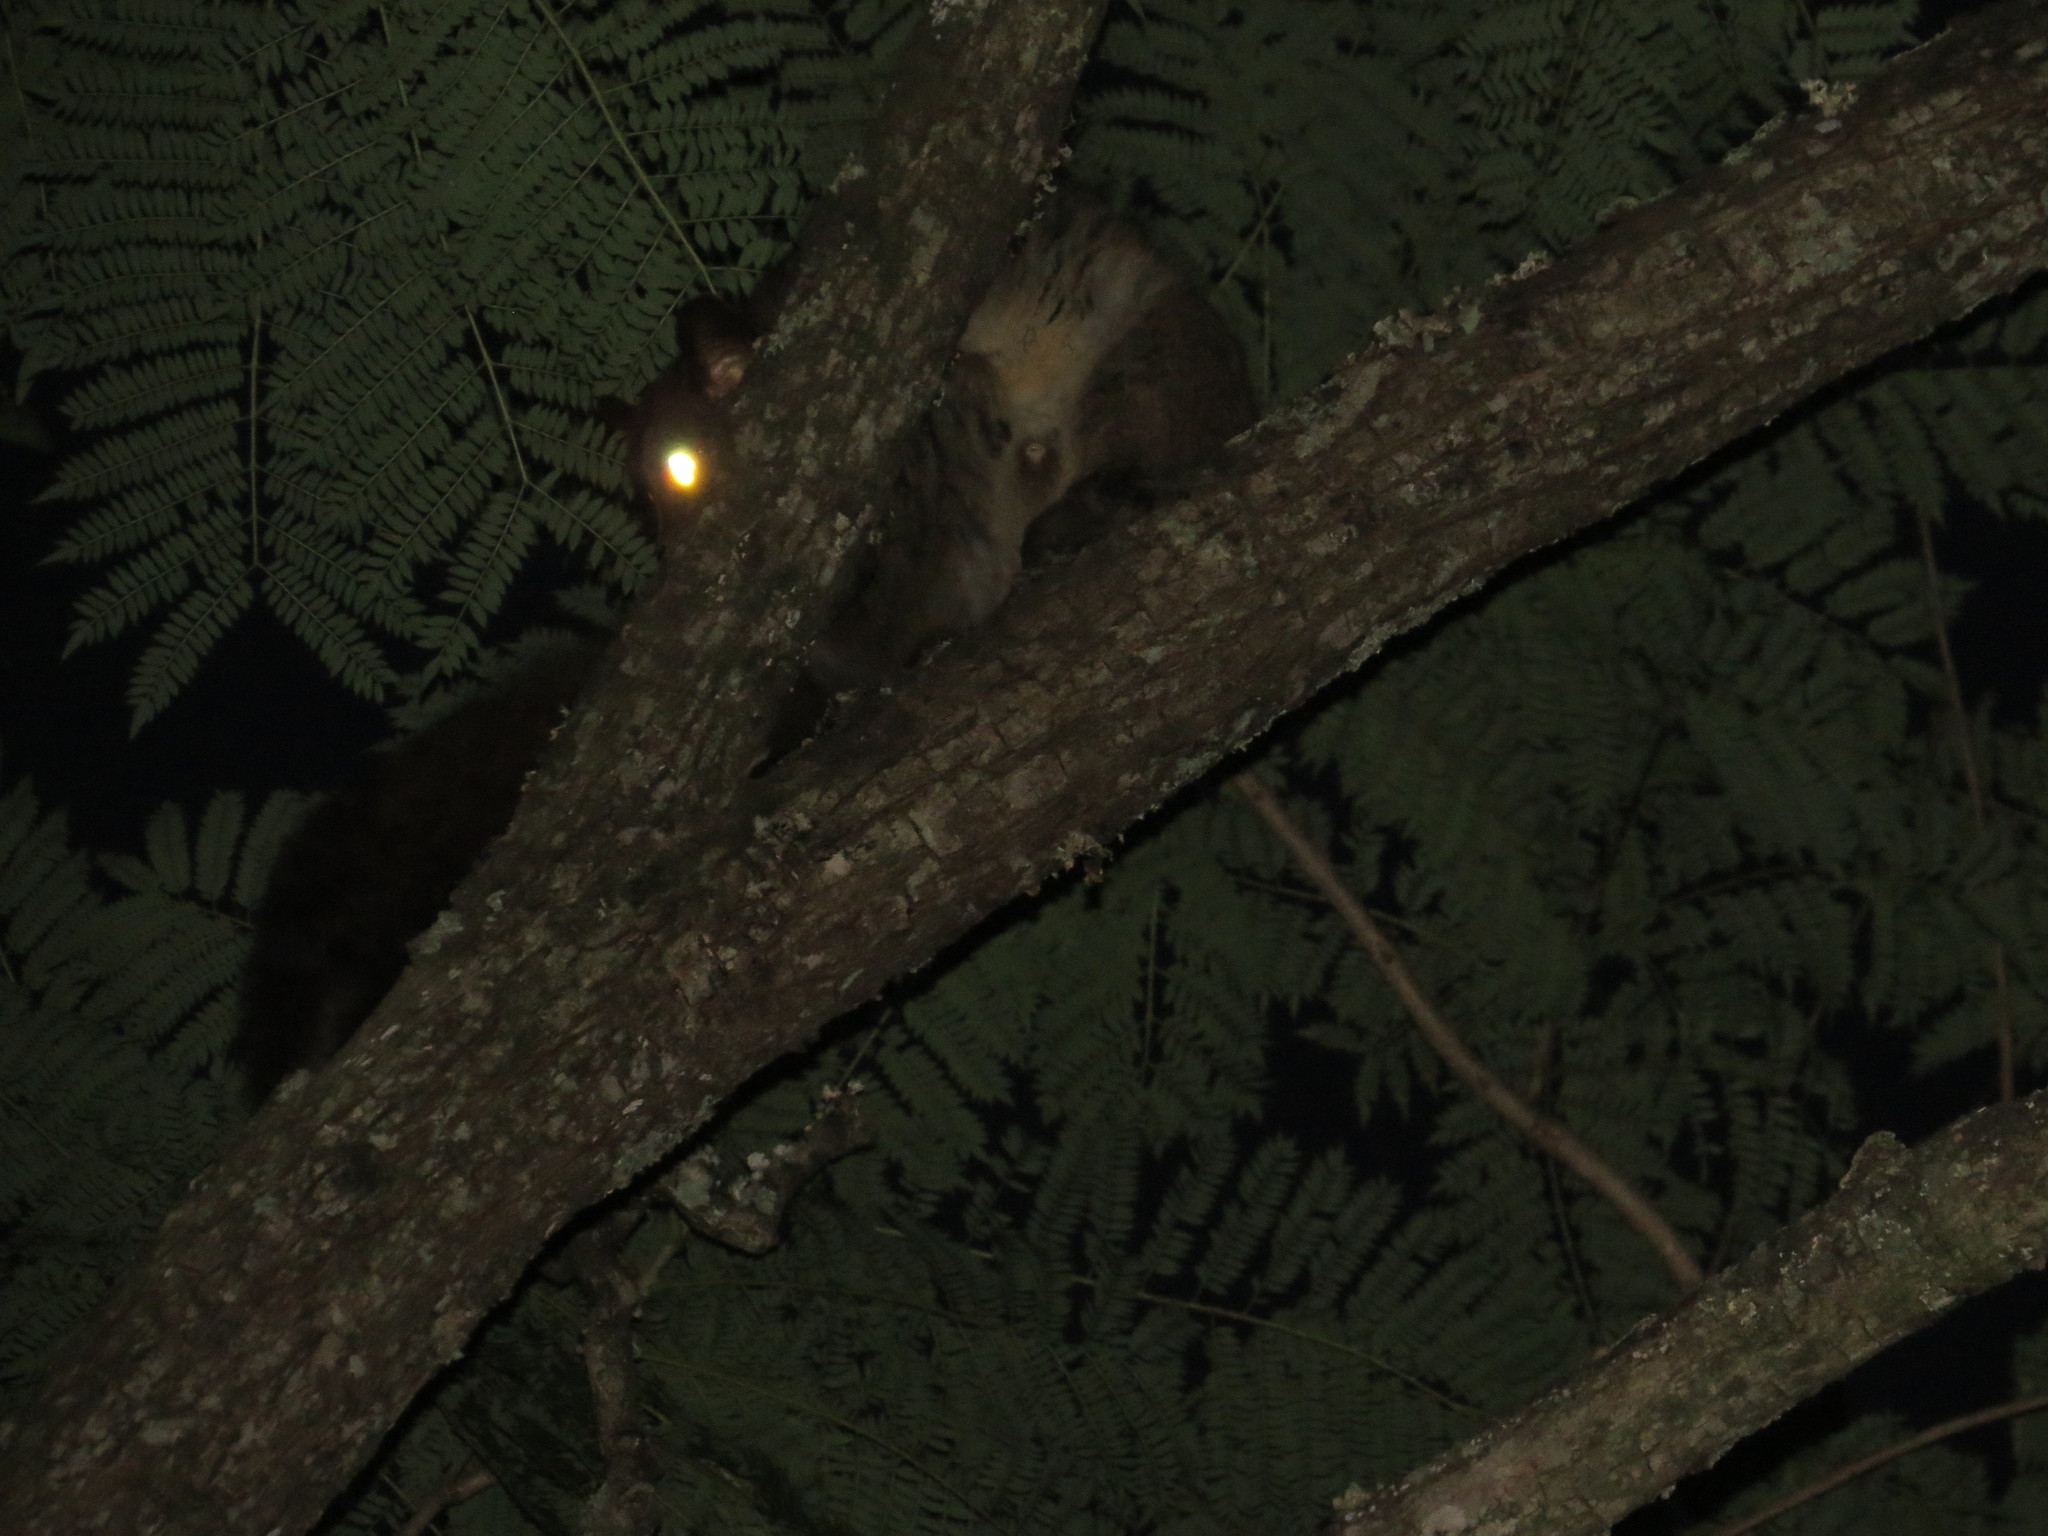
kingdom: Animalia
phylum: Chordata
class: Mammalia
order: Primates
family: Galagidae
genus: Otolemur
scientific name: Otolemur garnettii
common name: Northern greater galago
